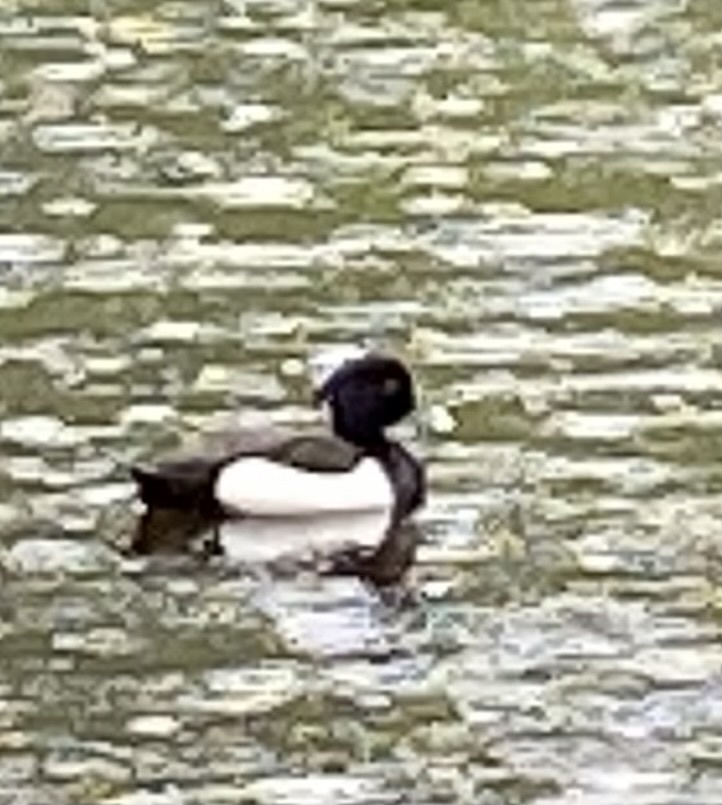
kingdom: Animalia
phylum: Chordata
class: Aves
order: Anseriformes
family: Anatidae
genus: Aythya
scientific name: Aythya fuligula
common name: Tufted duck
